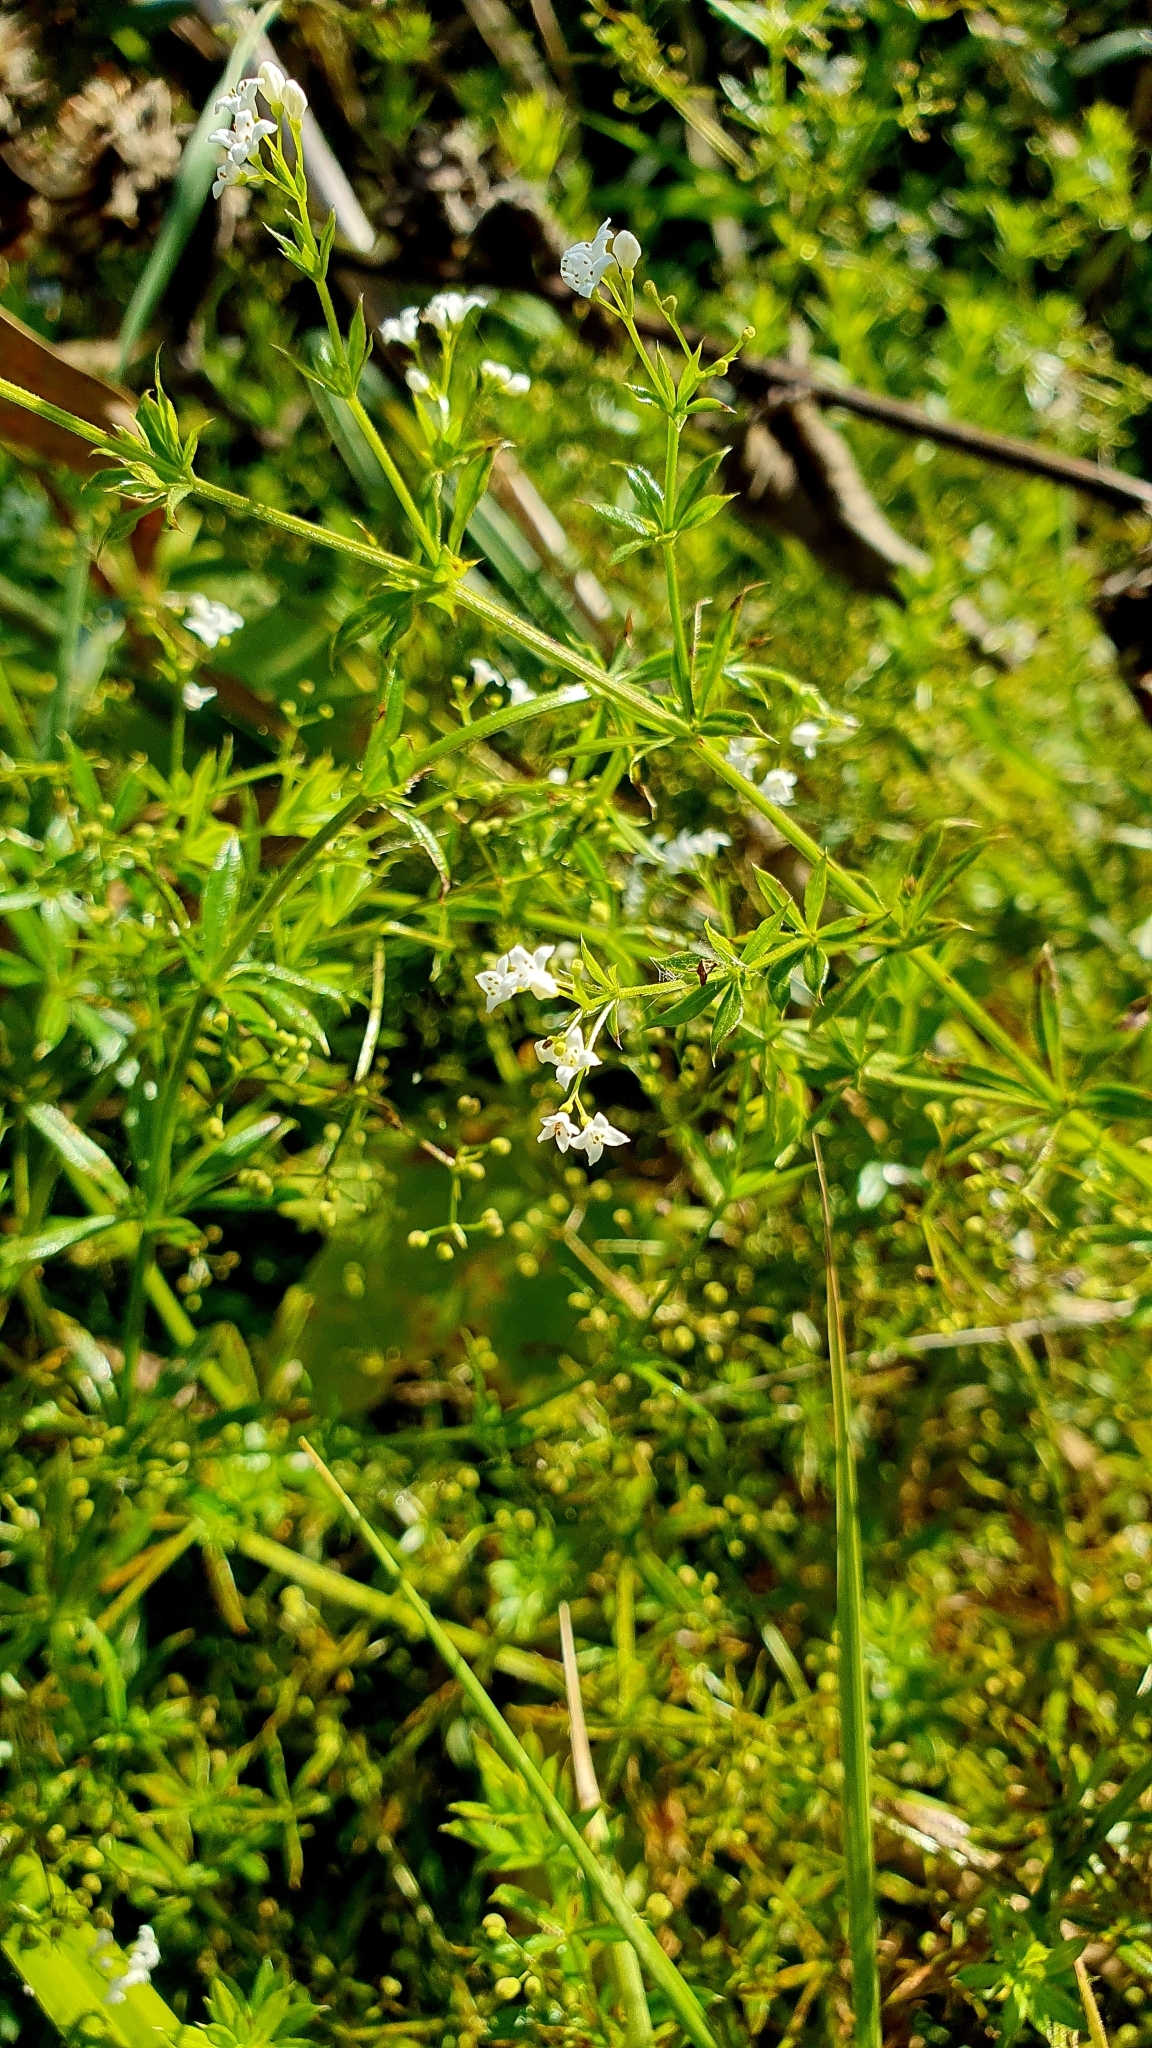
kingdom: Plantae
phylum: Tracheophyta
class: Magnoliopsida
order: Gentianales
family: Rubiaceae
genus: Galium
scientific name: Galium rivale
